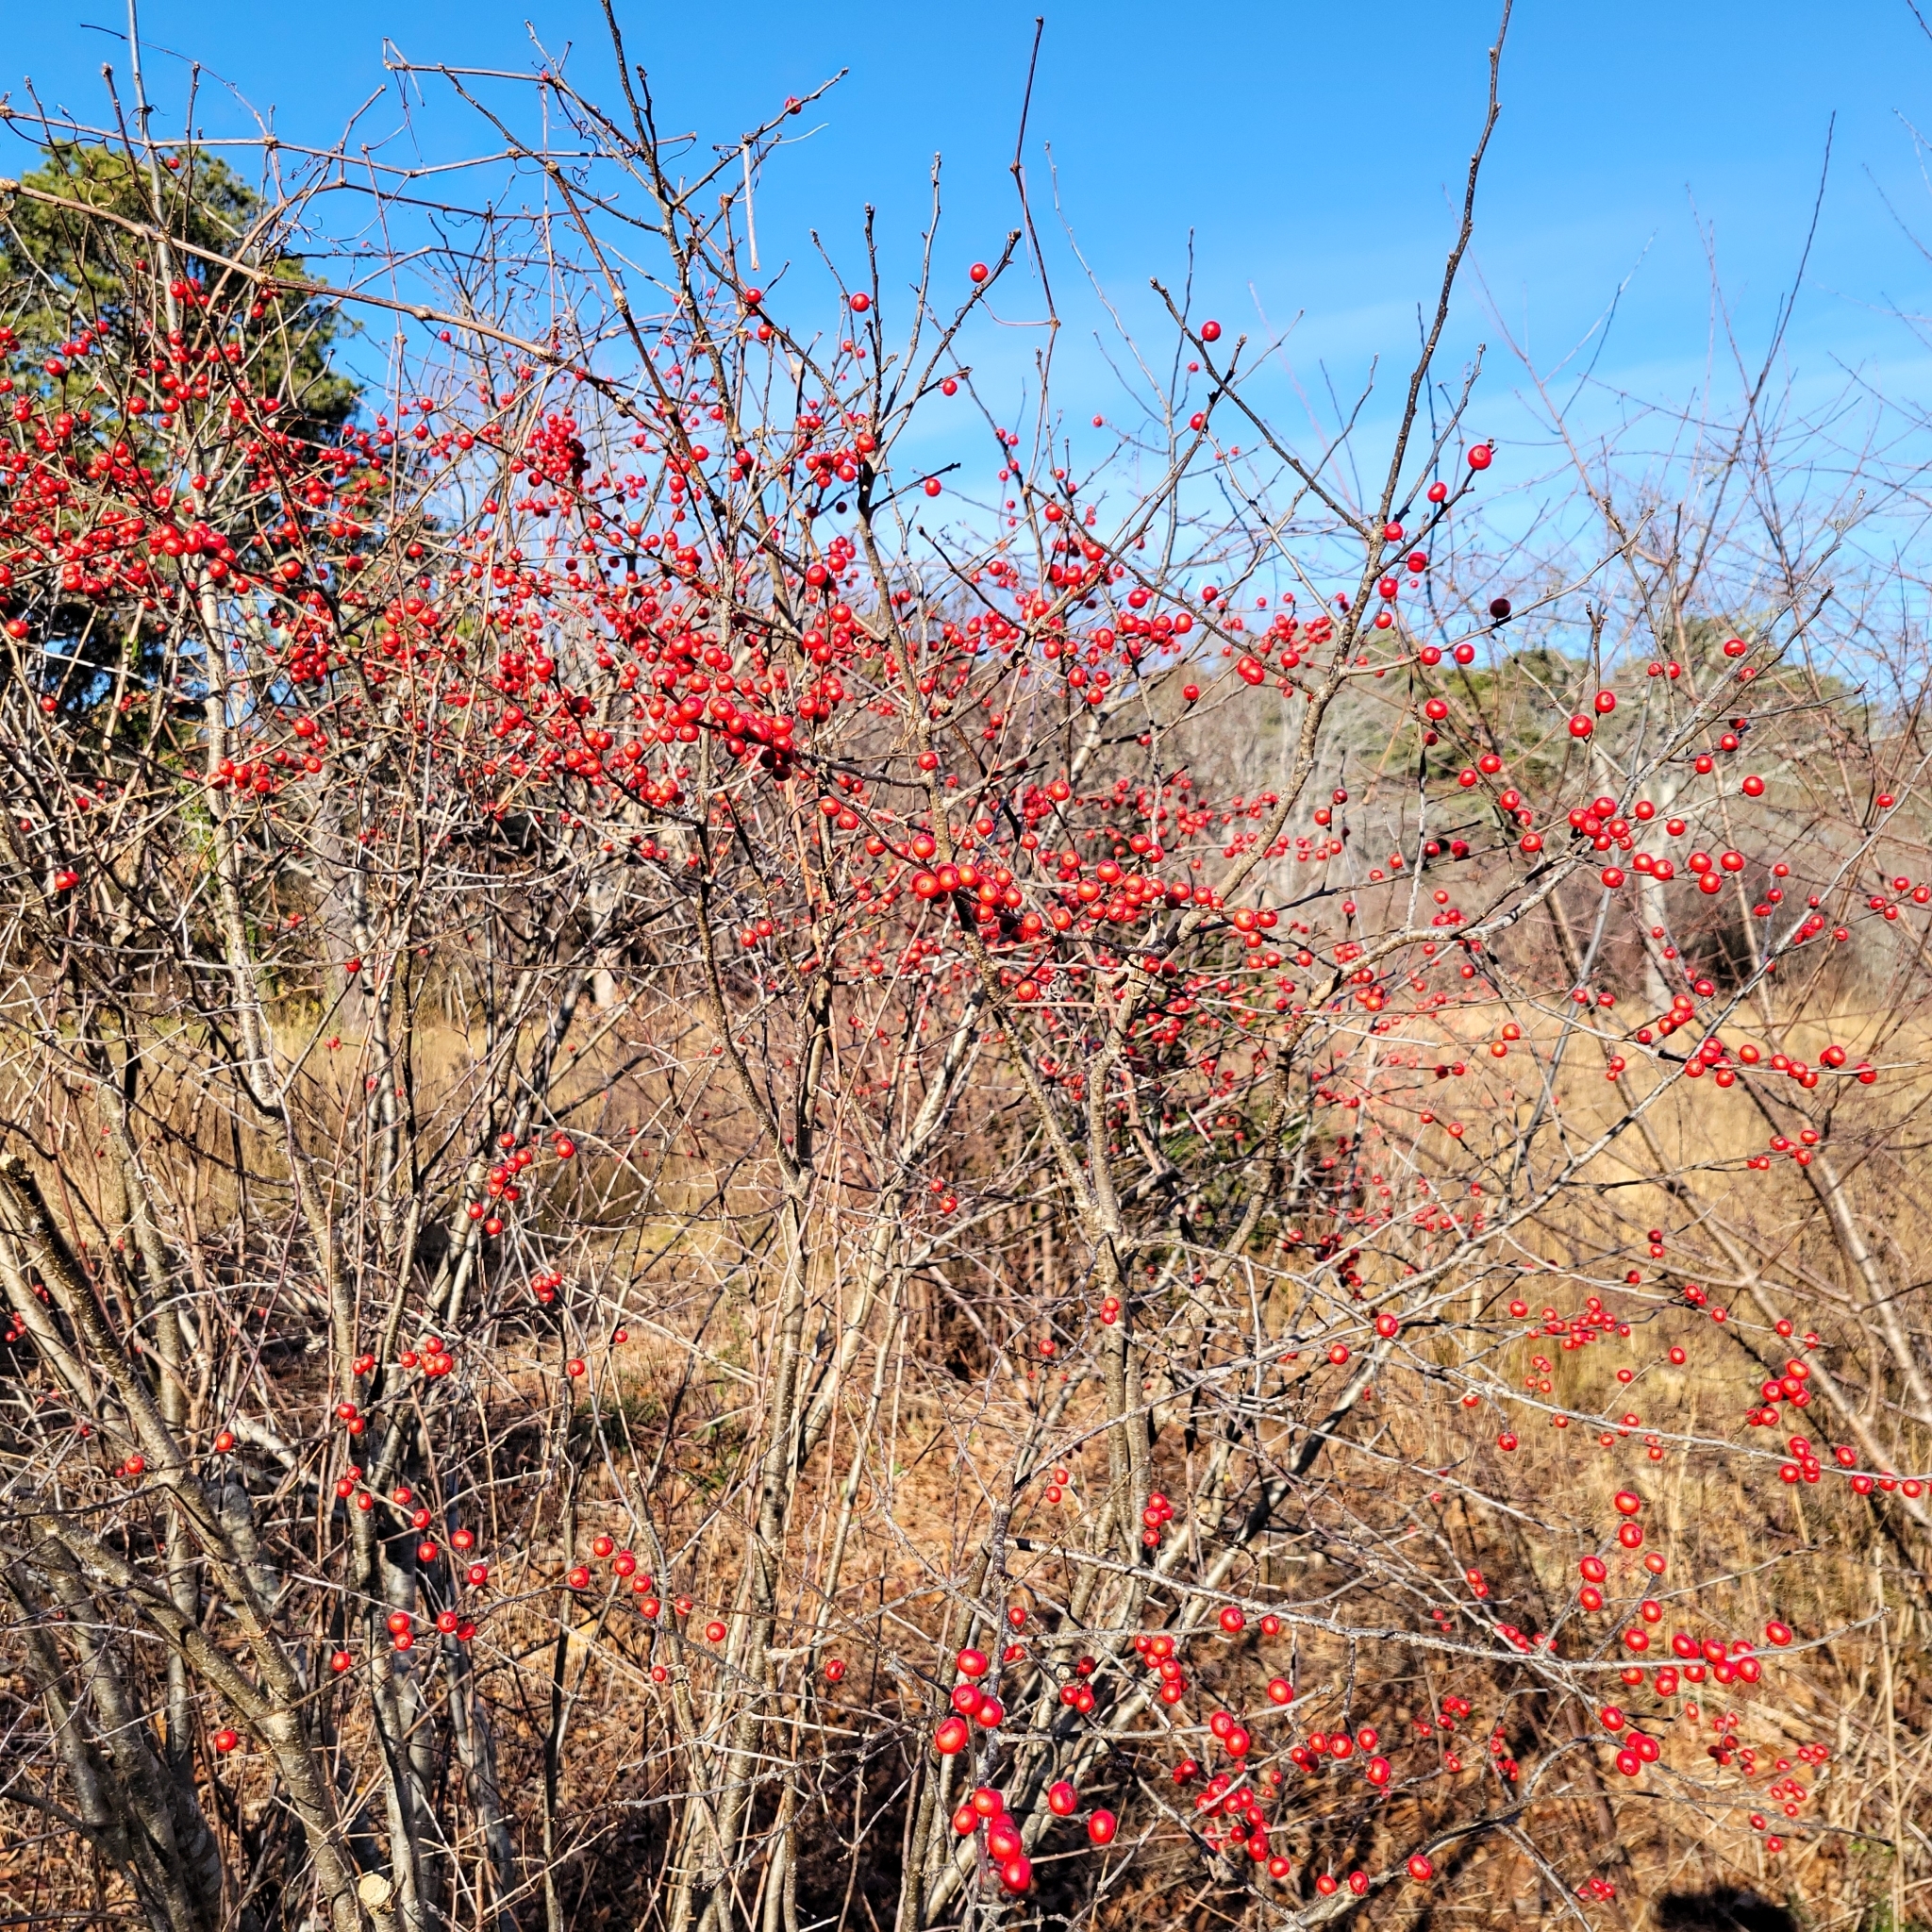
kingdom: Plantae
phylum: Tracheophyta
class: Magnoliopsida
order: Aquifoliales
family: Aquifoliaceae
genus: Ilex
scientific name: Ilex verticillata
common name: Virginia winterberry
